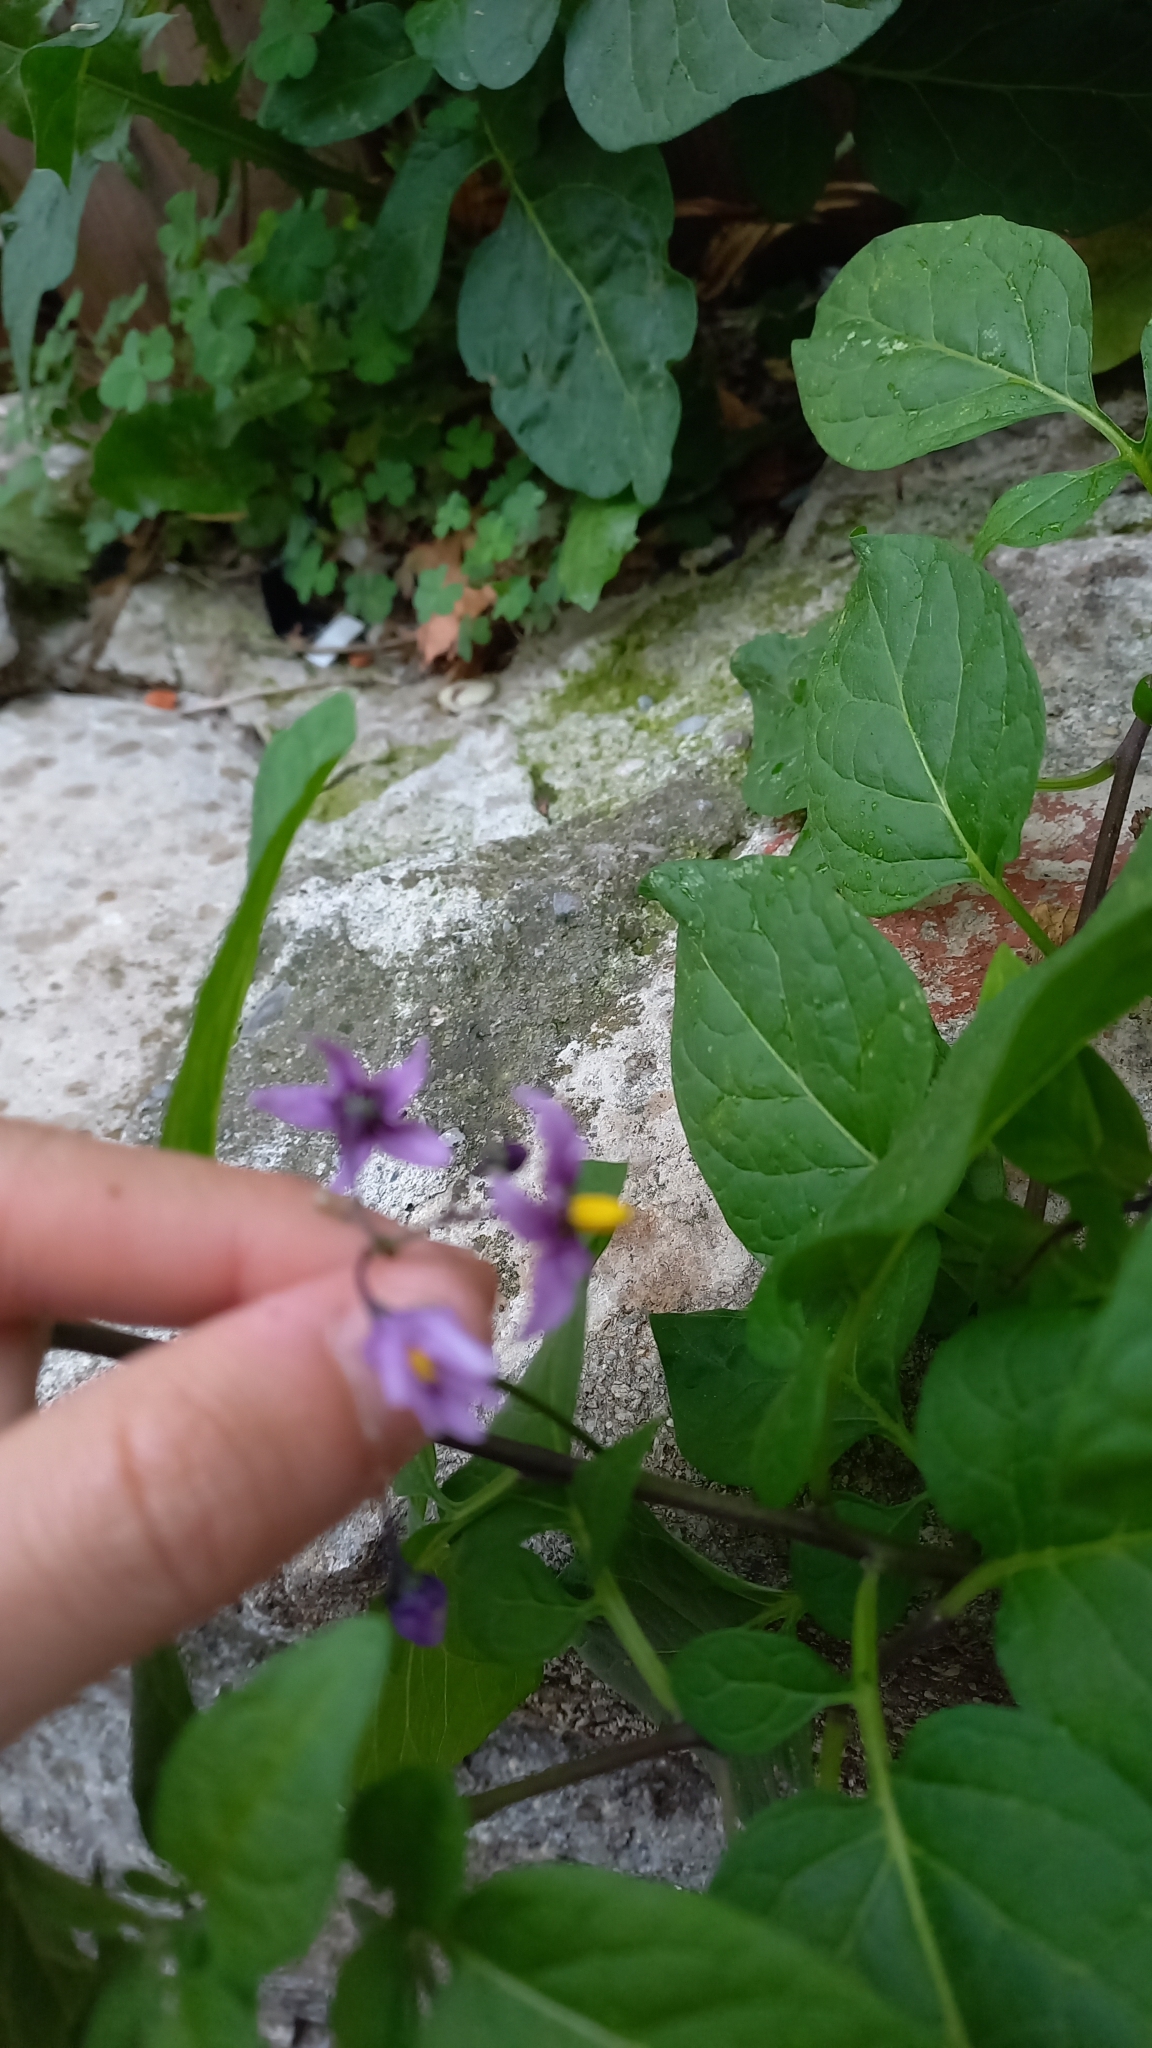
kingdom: Plantae
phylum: Tracheophyta
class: Magnoliopsida
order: Solanales
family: Solanaceae
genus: Solanum
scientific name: Solanum dulcamara
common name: Climbing nightshade
